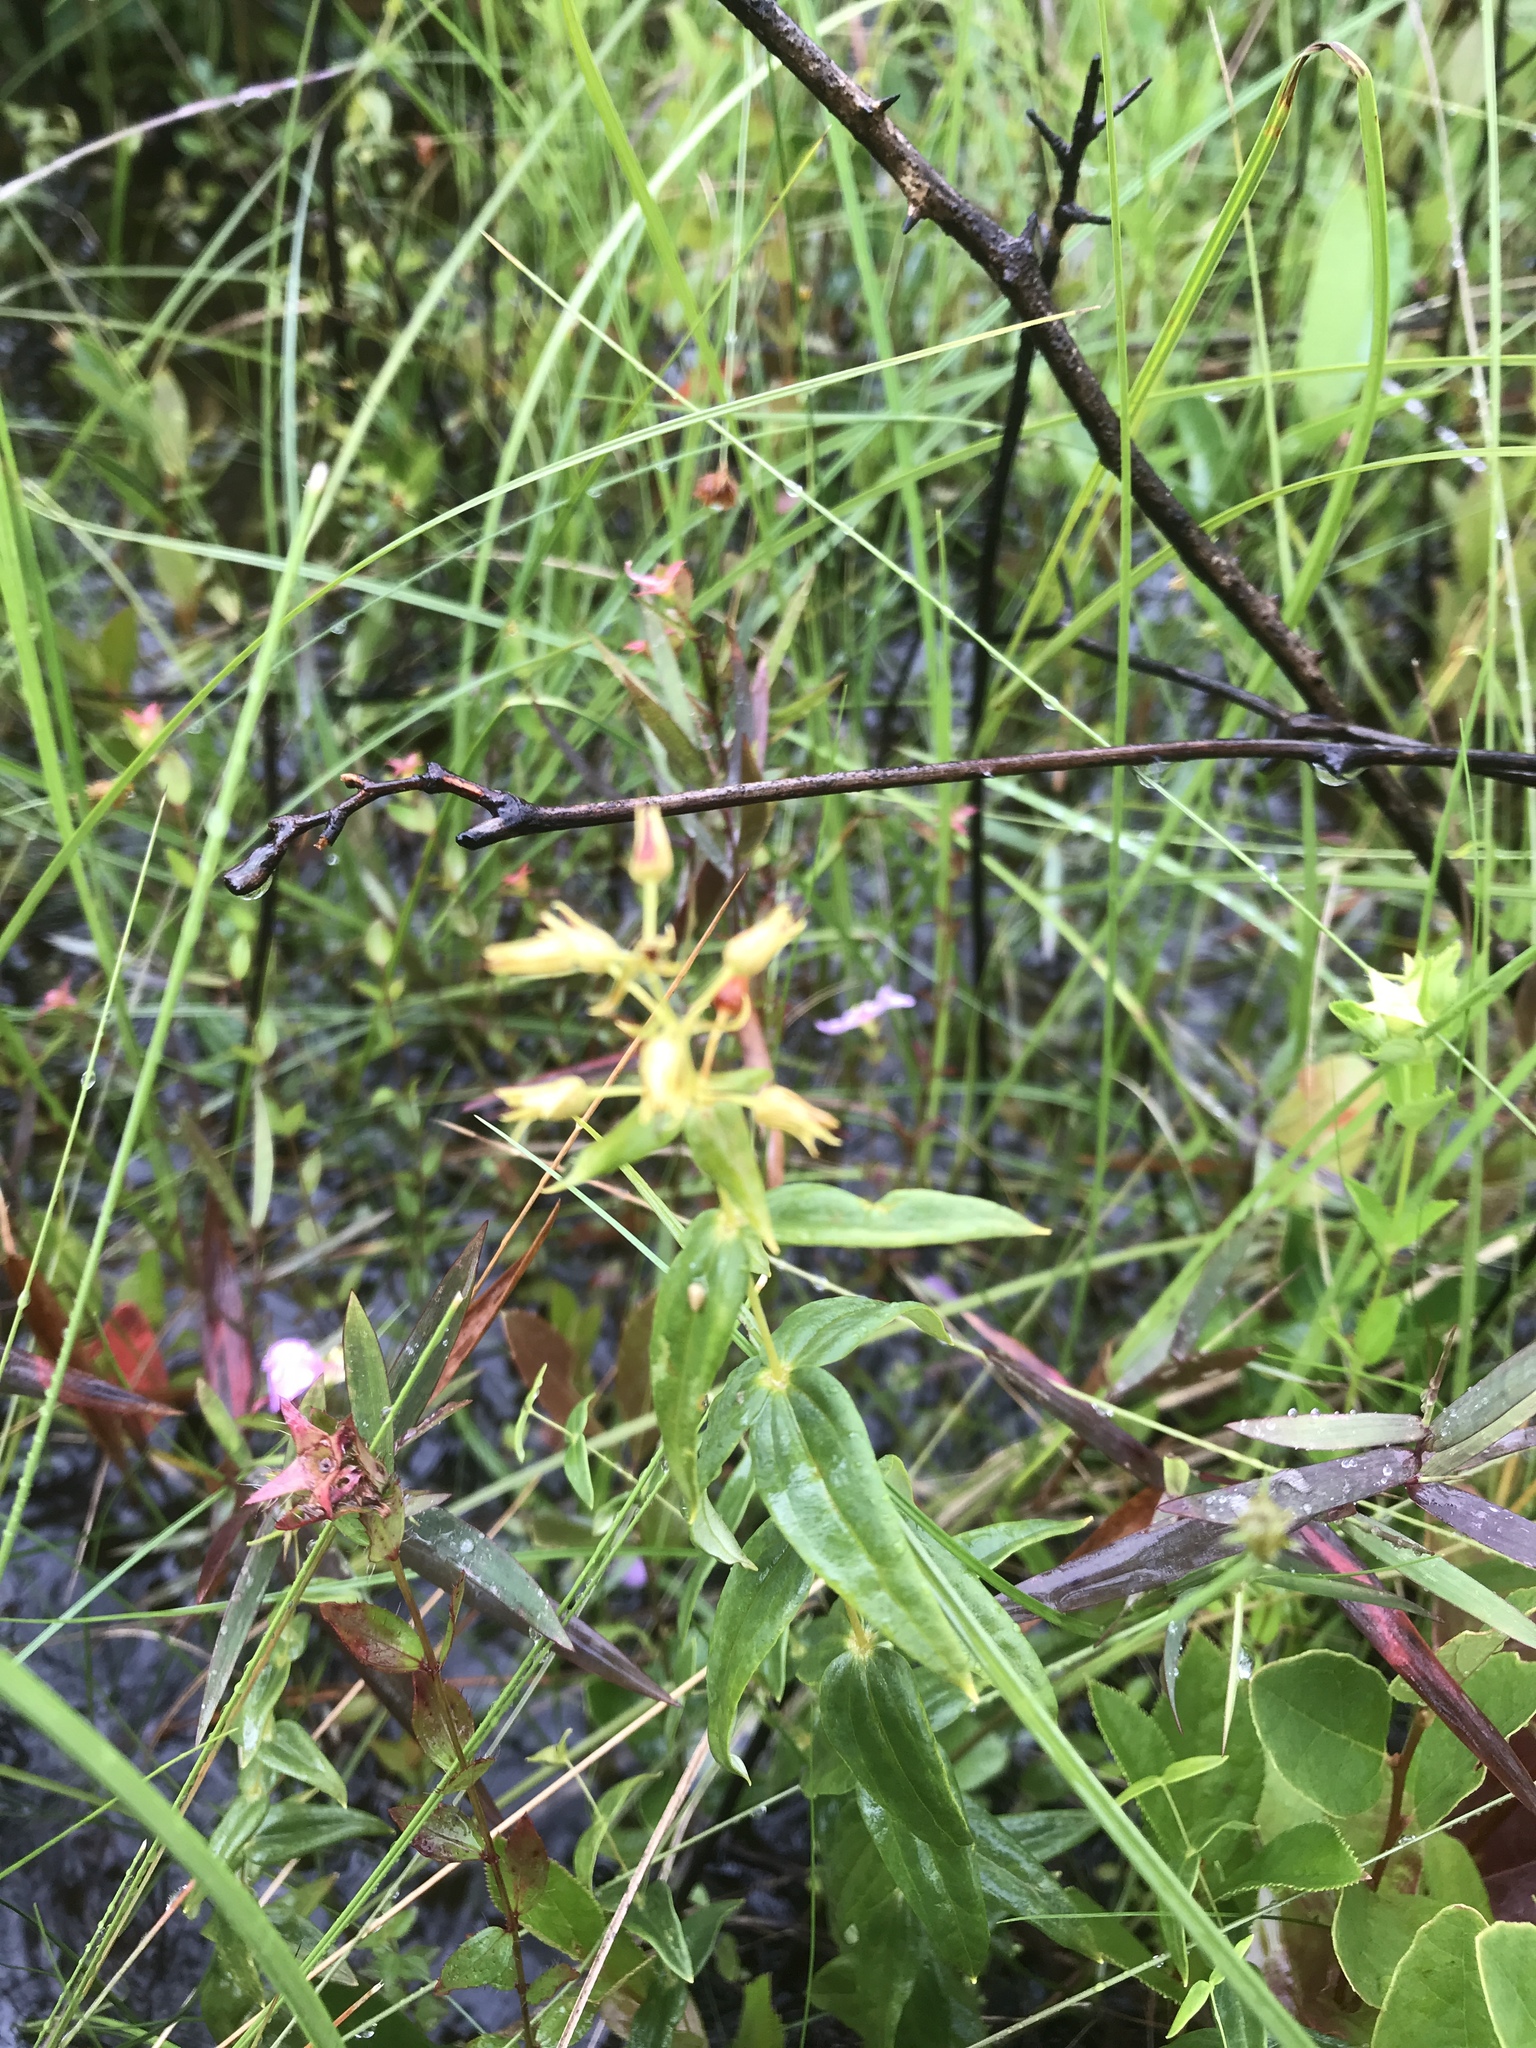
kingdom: Plantae
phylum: Tracheophyta
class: Magnoliopsida
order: Ericales
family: Primulaceae
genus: Lysimachia
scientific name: Lysimachia asperulifolia
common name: Rough-leaf loosestrife
